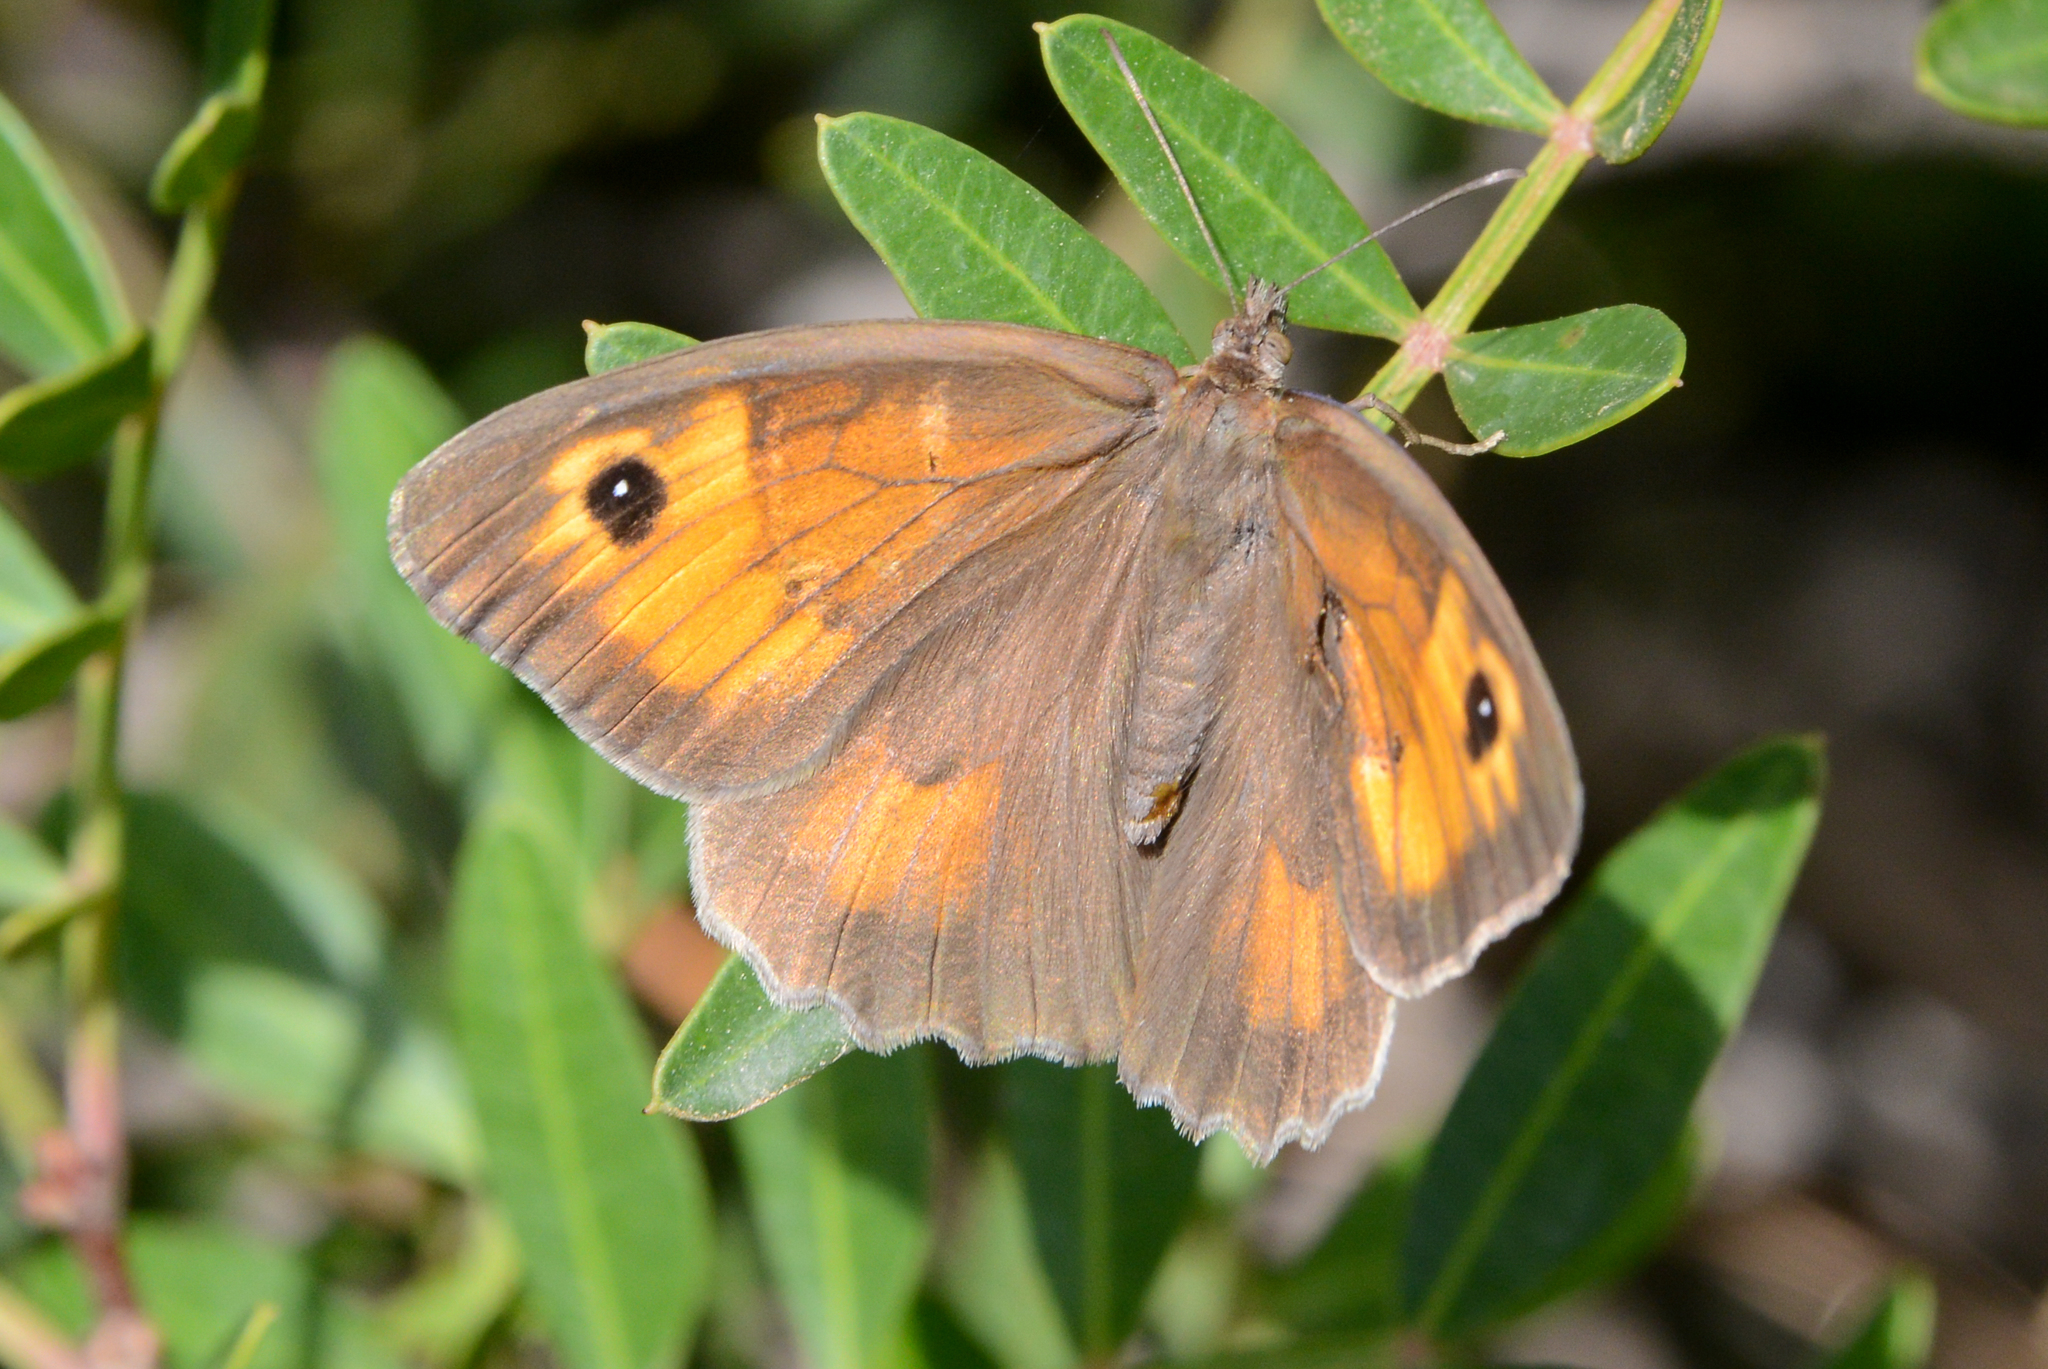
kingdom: Animalia
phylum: Arthropoda
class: Insecta
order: Lepidoptera
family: Nymphalidae
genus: Maniola
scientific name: Maniola jurtina
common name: Meadow brown
